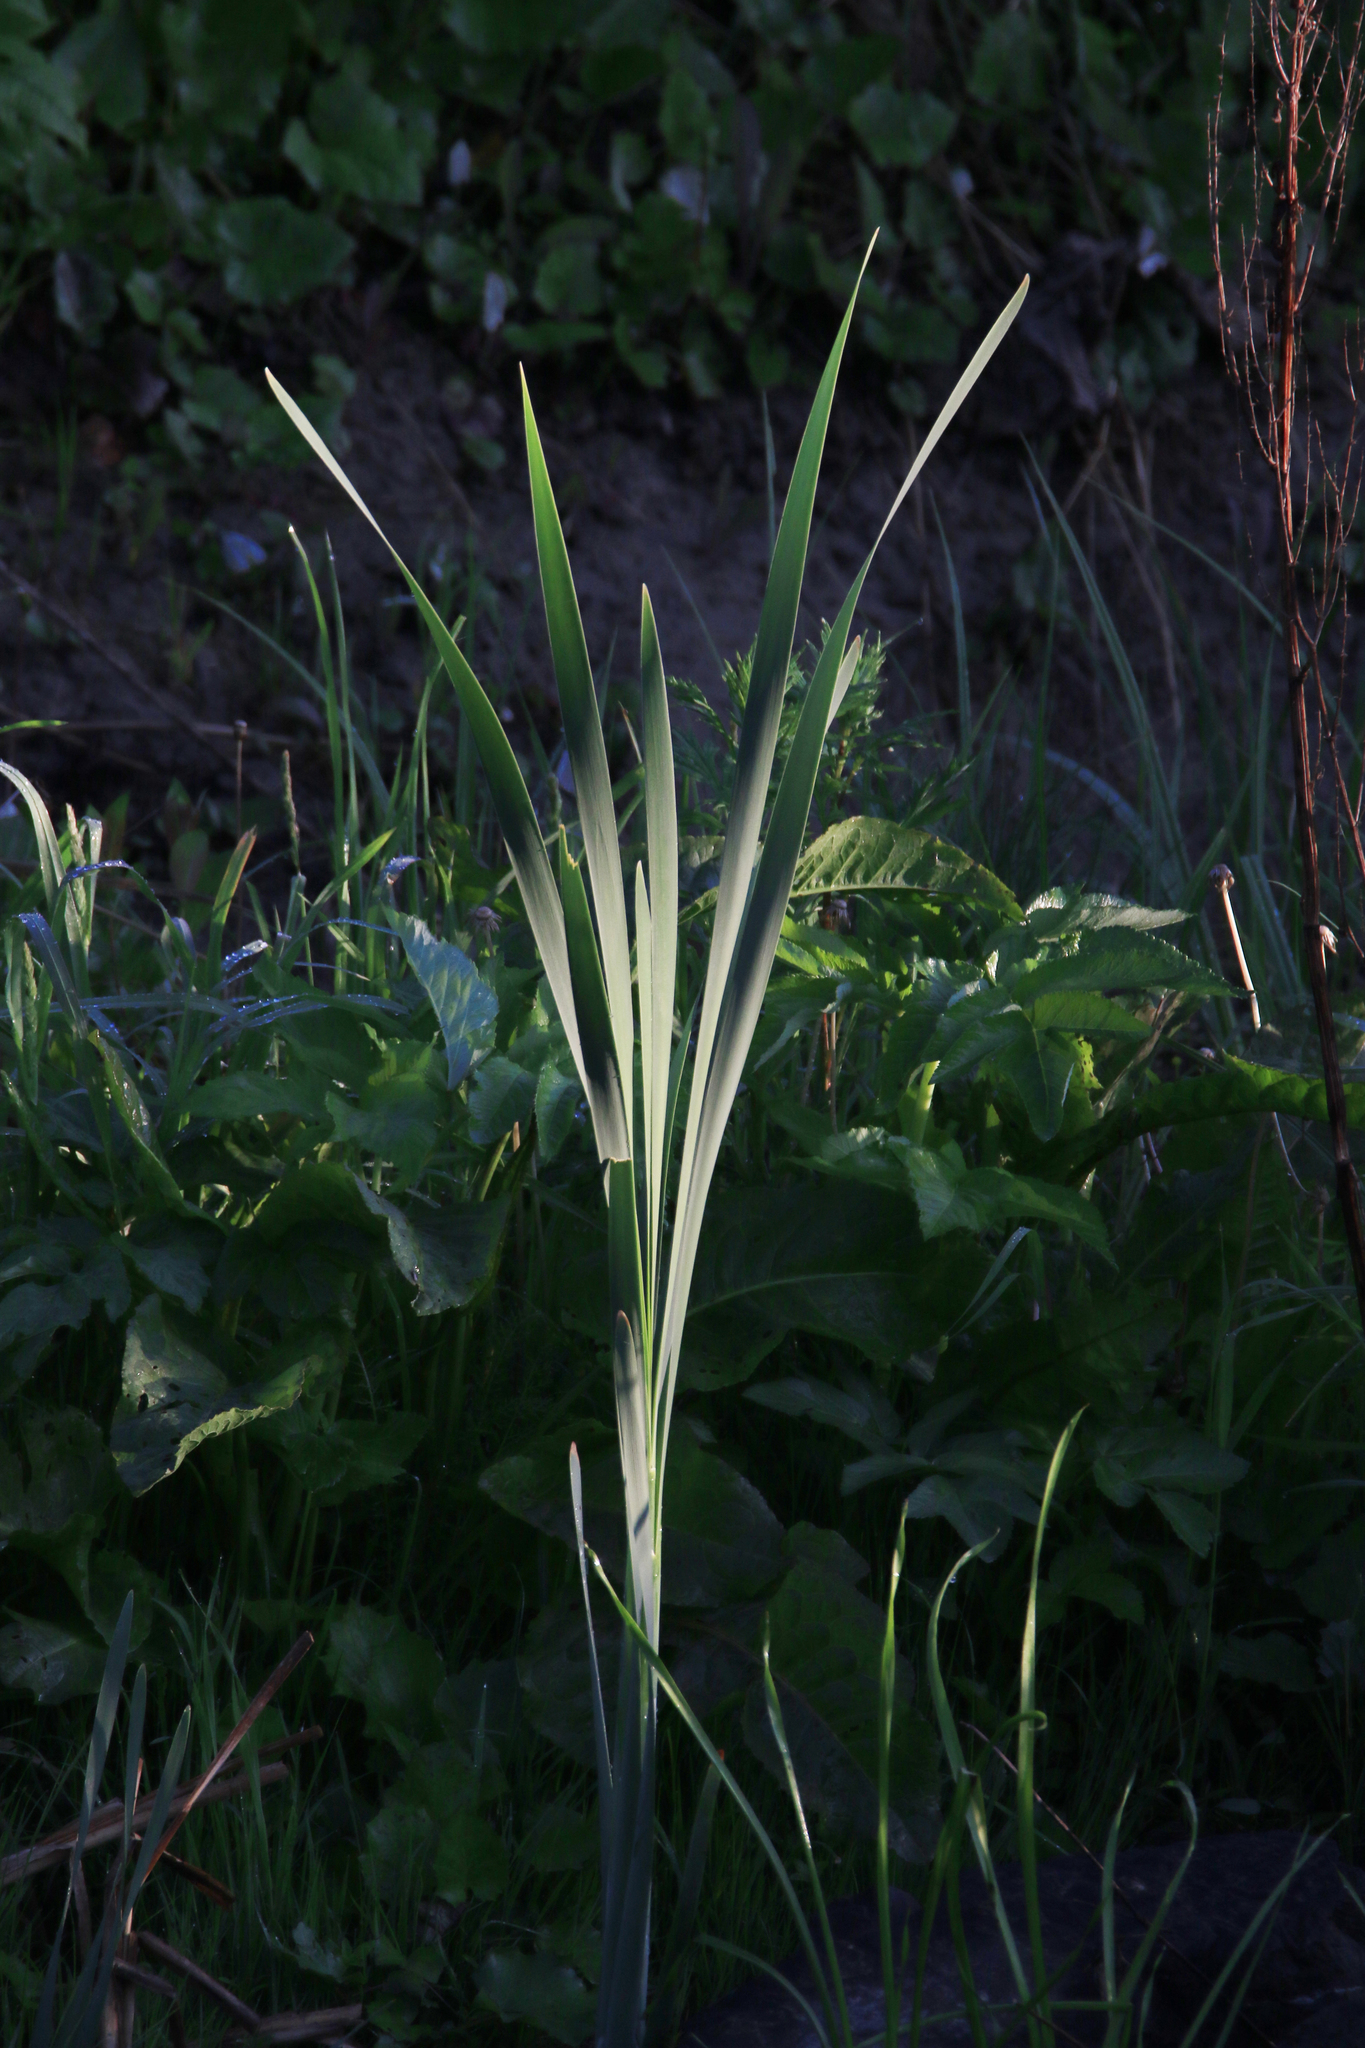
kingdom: Plantae
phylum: Tracheophyta
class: Liliopsida
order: Poales
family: Typhaceae
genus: Typha
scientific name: Typha latifolia
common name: Broadleaf cattail
